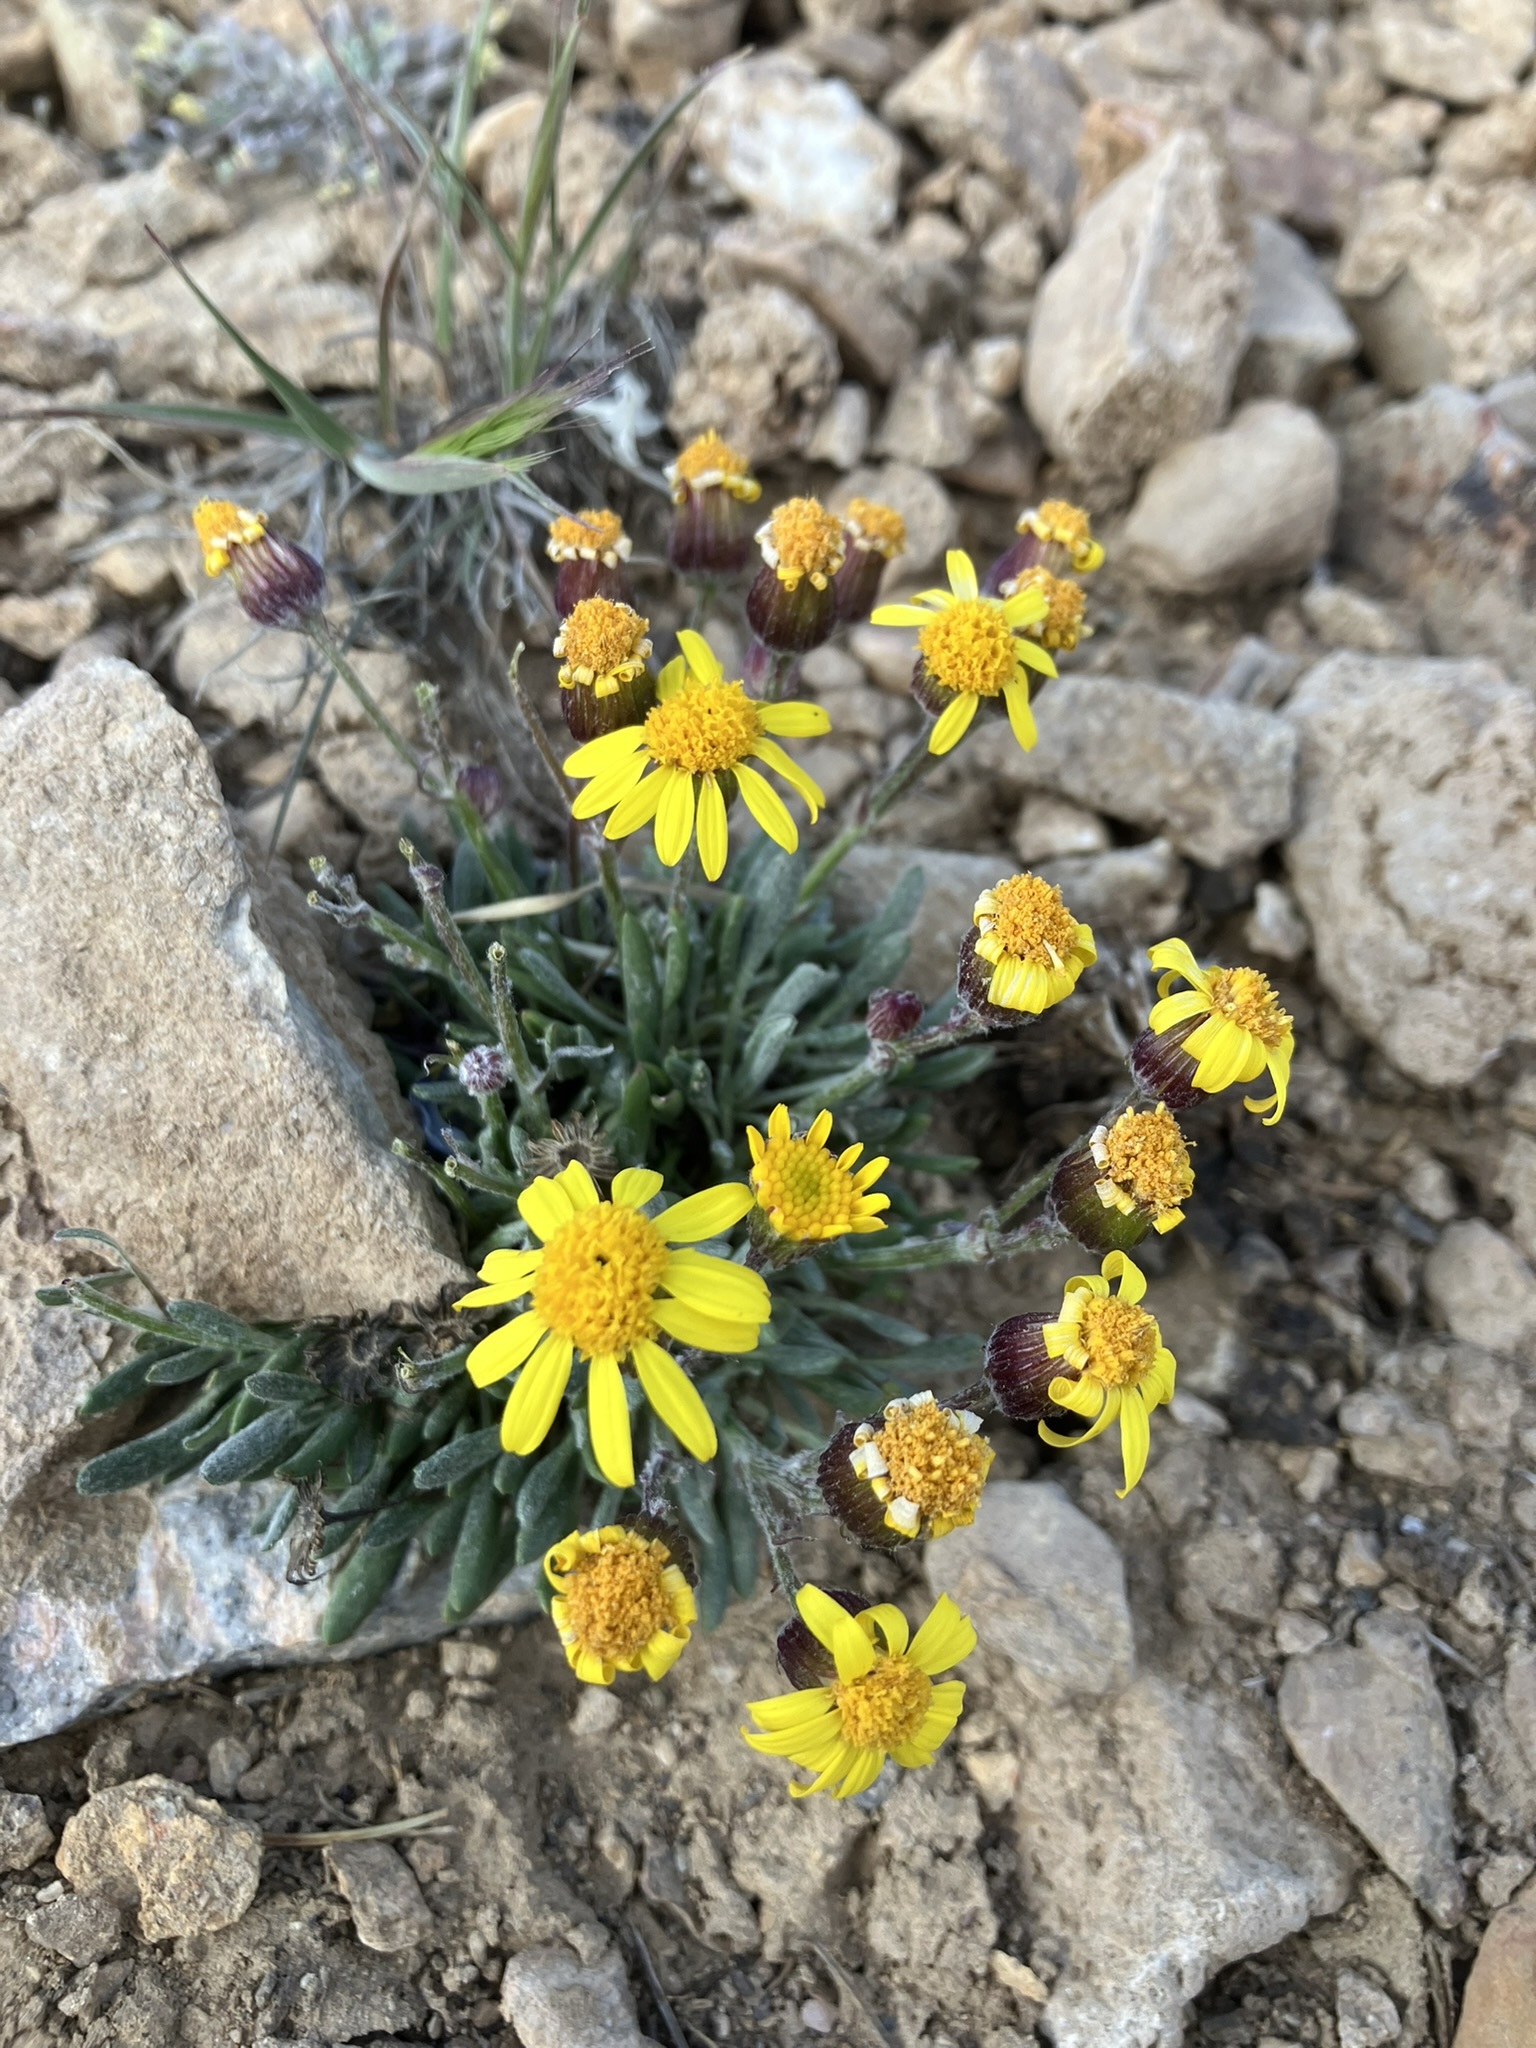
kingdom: Plantae
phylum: Tracheophyta
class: Magnoliopsida
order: Asterales
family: Asteraceae
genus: Packera
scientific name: Packera werneriifolia
